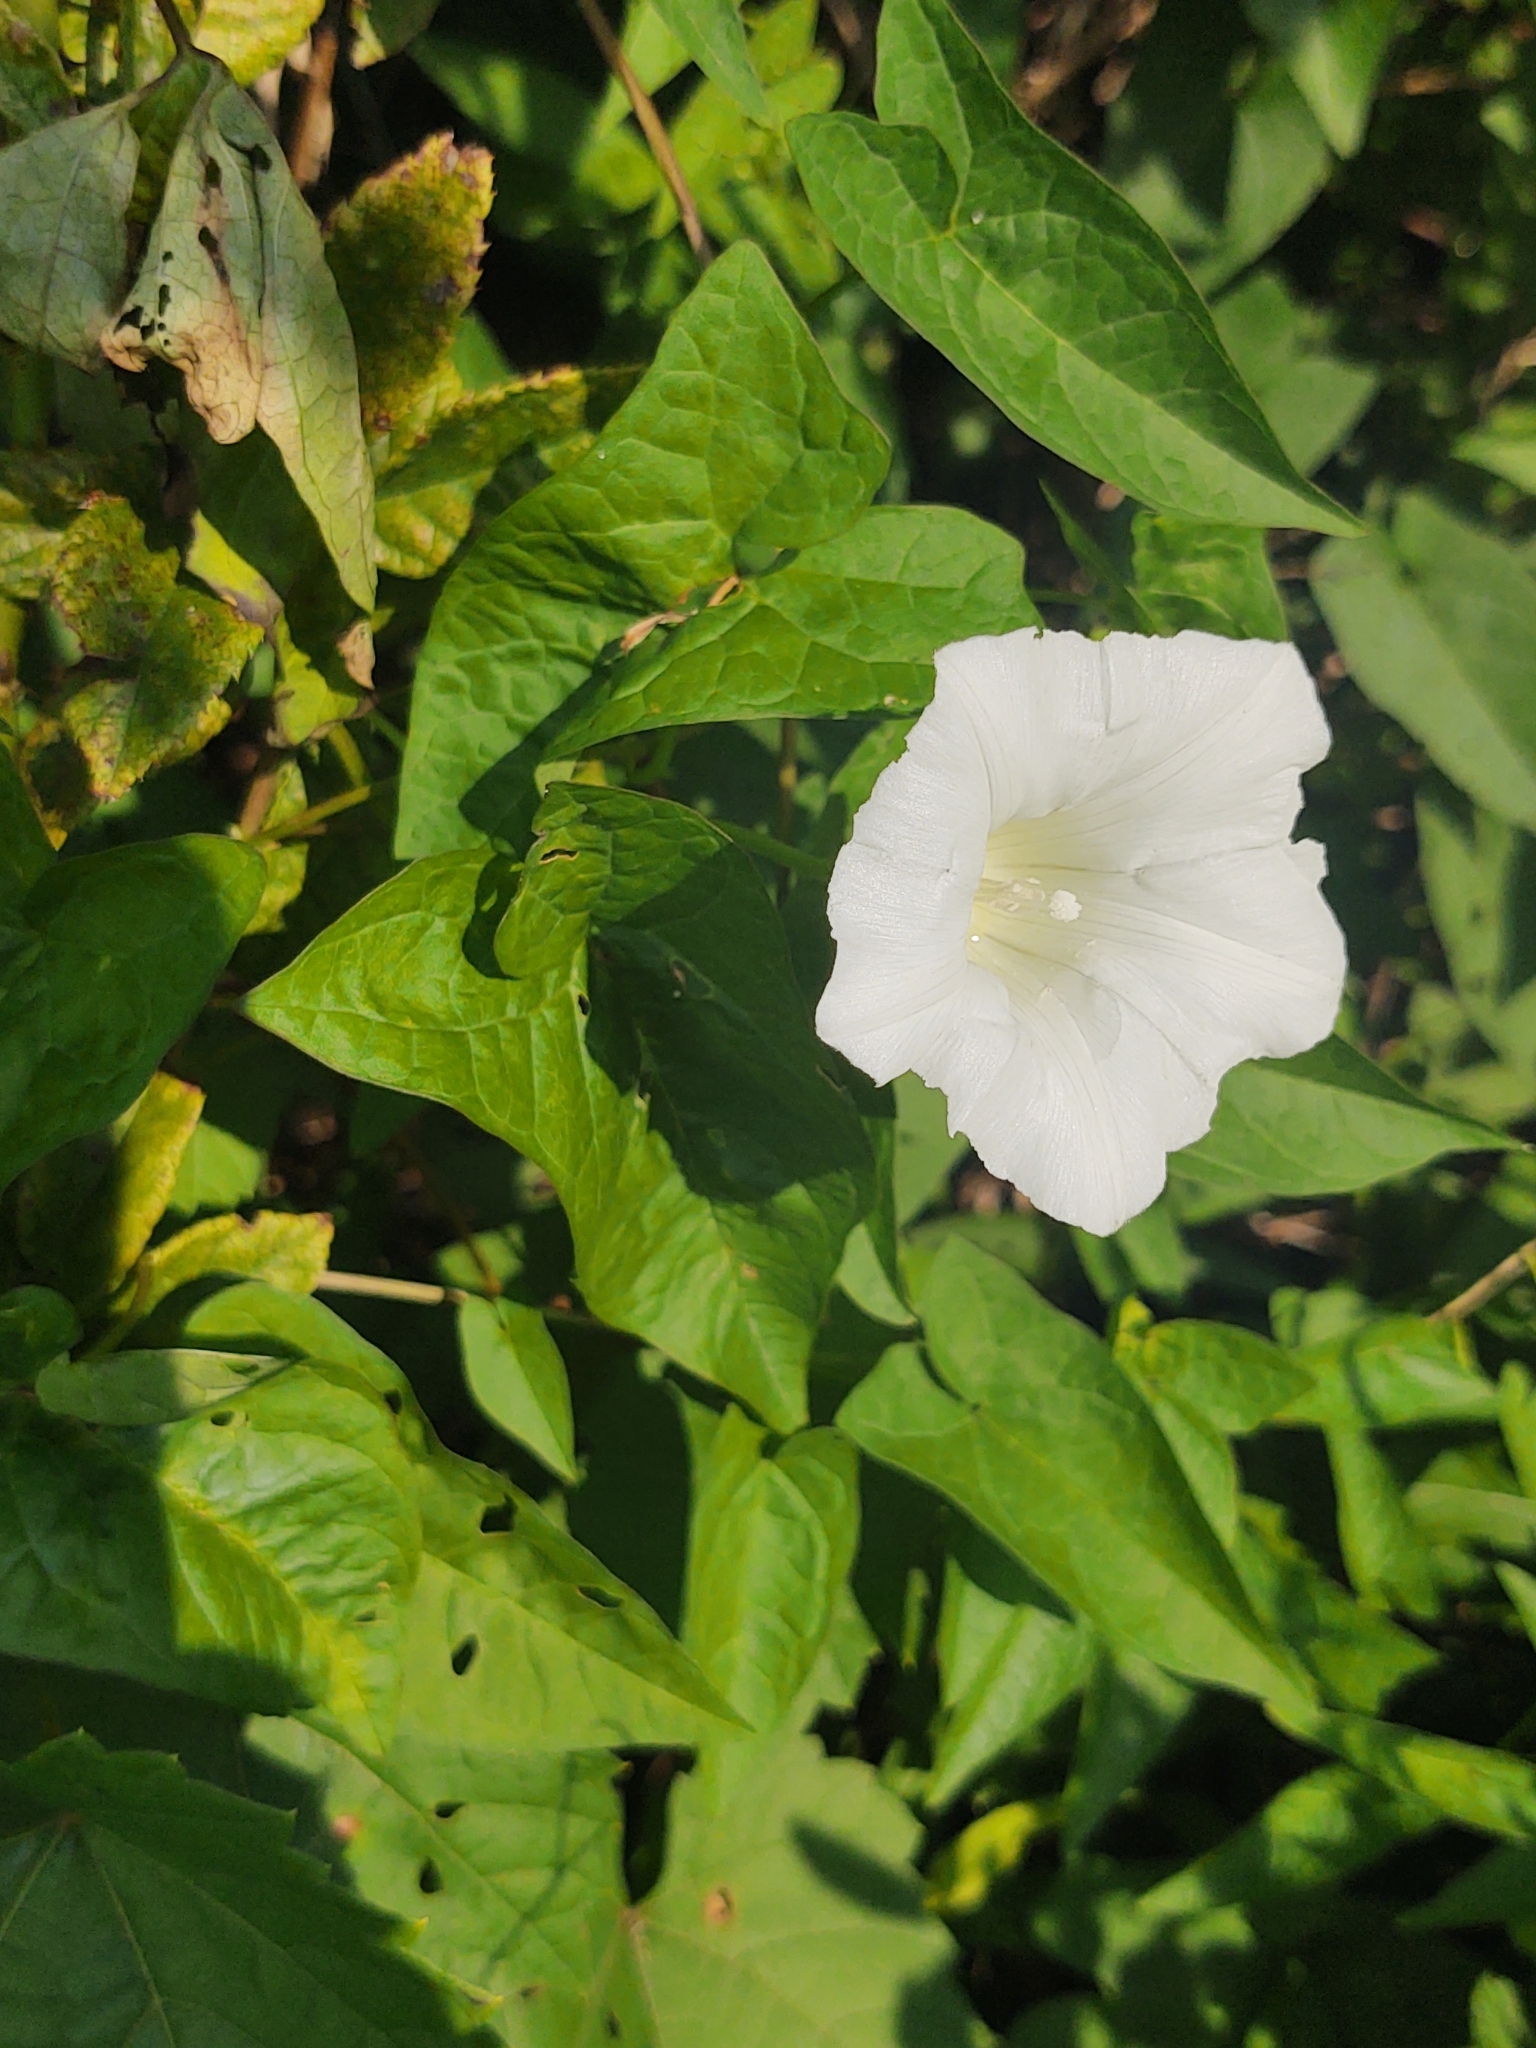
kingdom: Plantae
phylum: Tracheophyta
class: Magnoliopsida
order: Solanales
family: Convolvulaceae
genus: Calystegia
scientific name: Calystegia sepium
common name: Hedge bindweed
